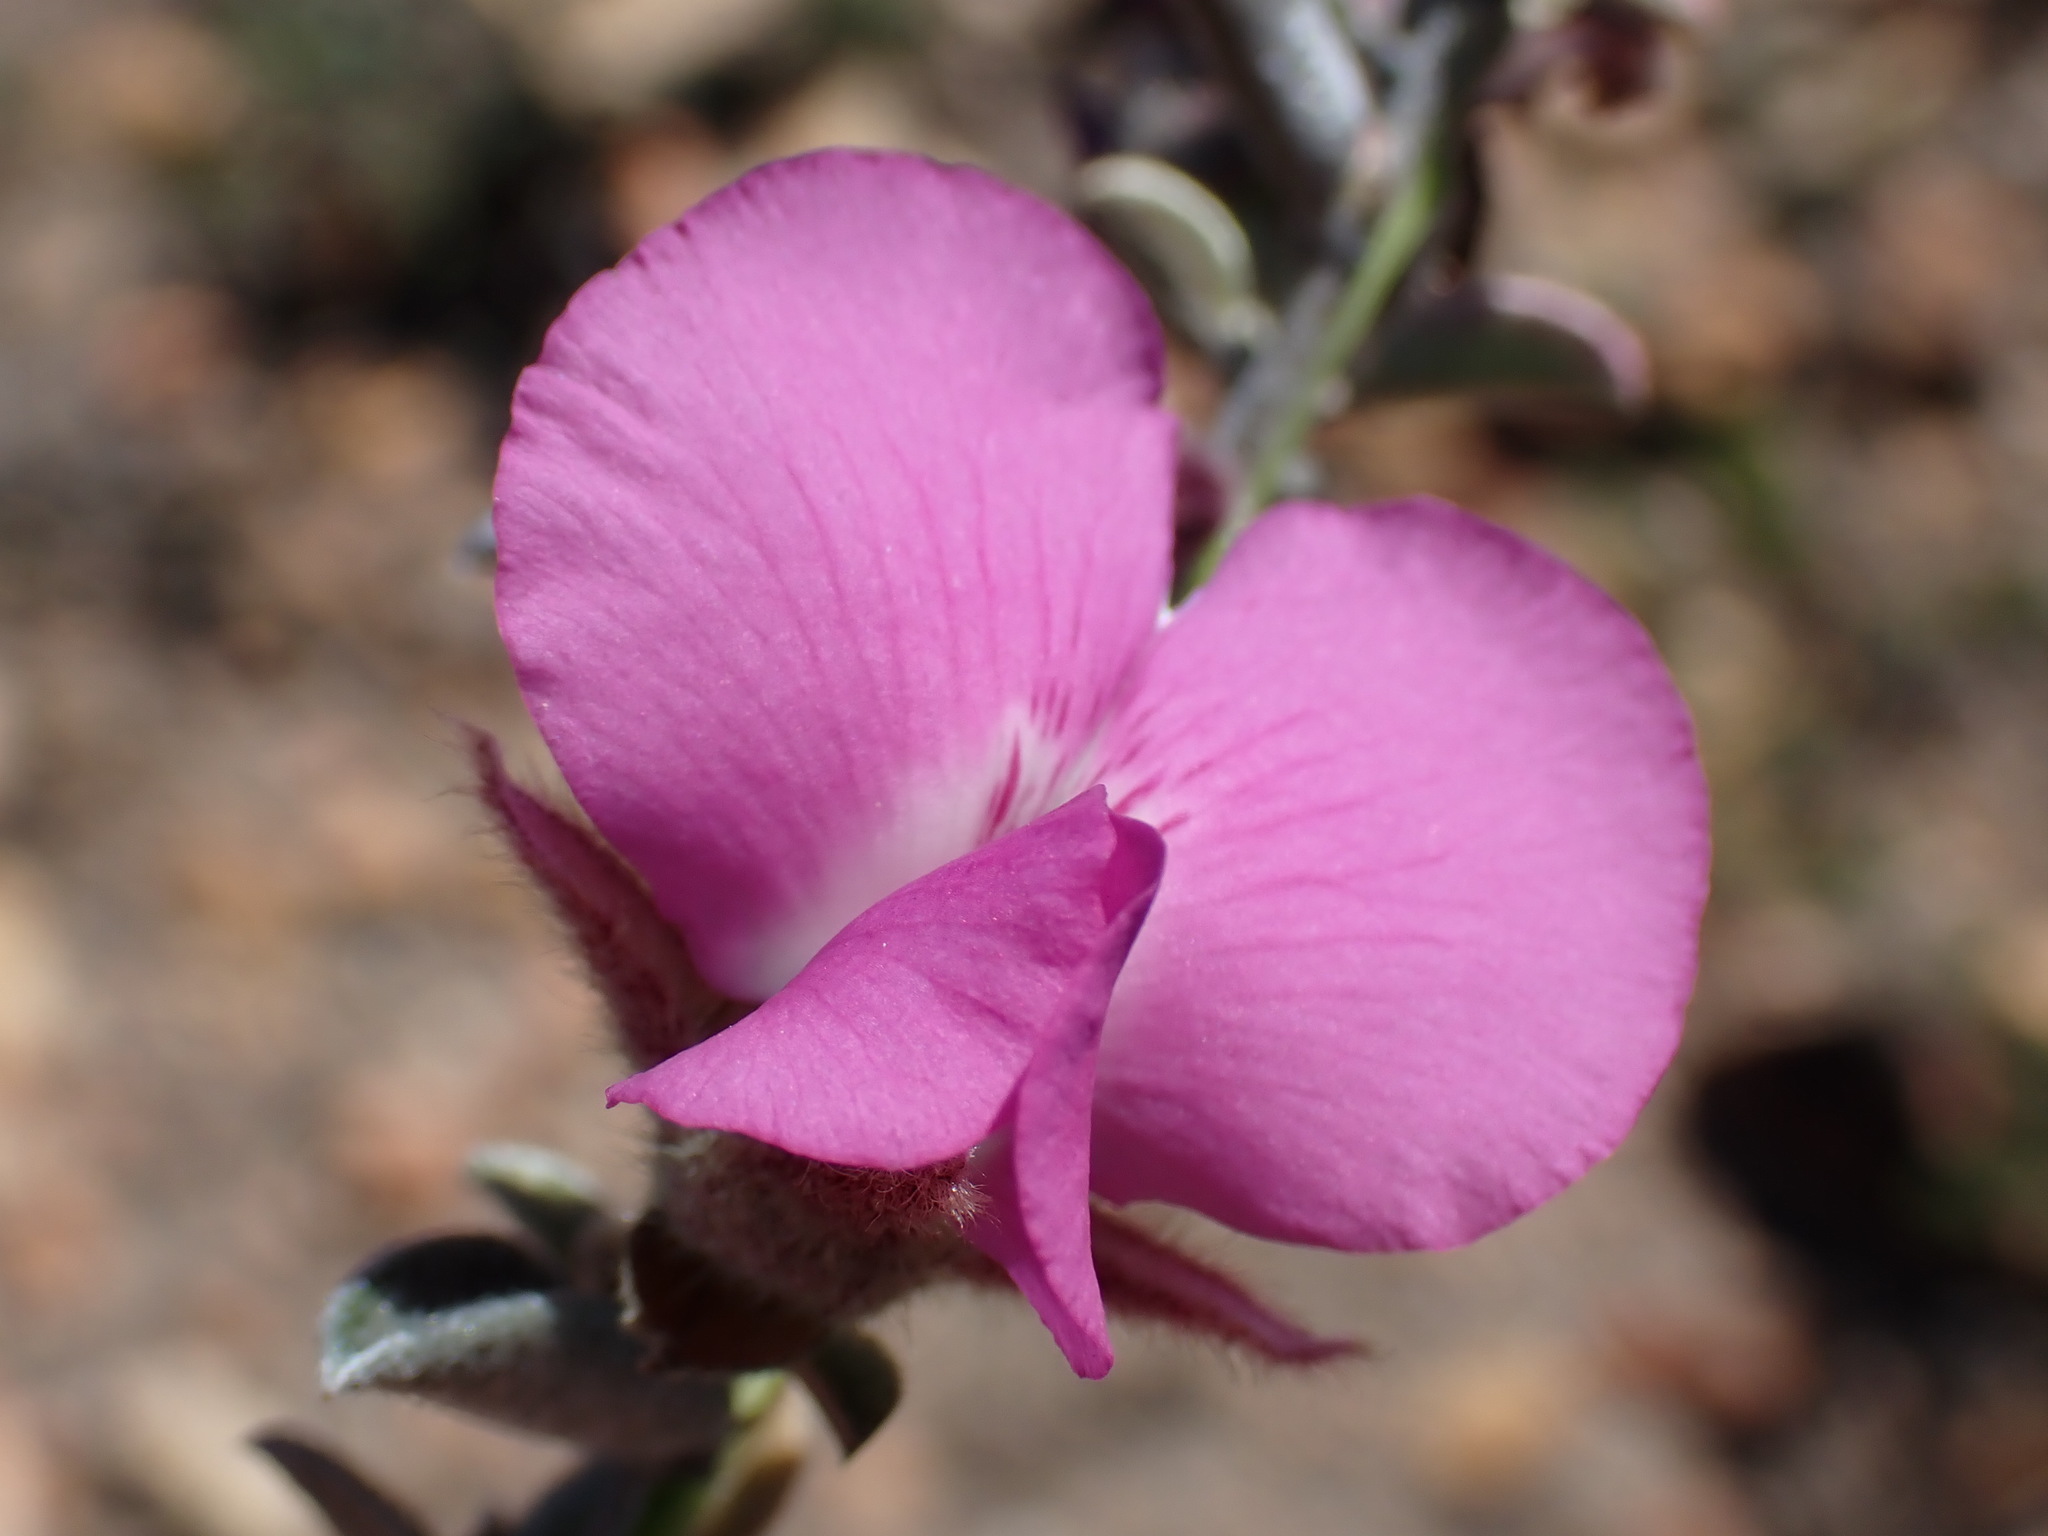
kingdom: Plantae
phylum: Tracheophyta
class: Magnoliopsida
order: Fabales
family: Fabaceae
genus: Podalyria
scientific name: Podalyria burchellii
